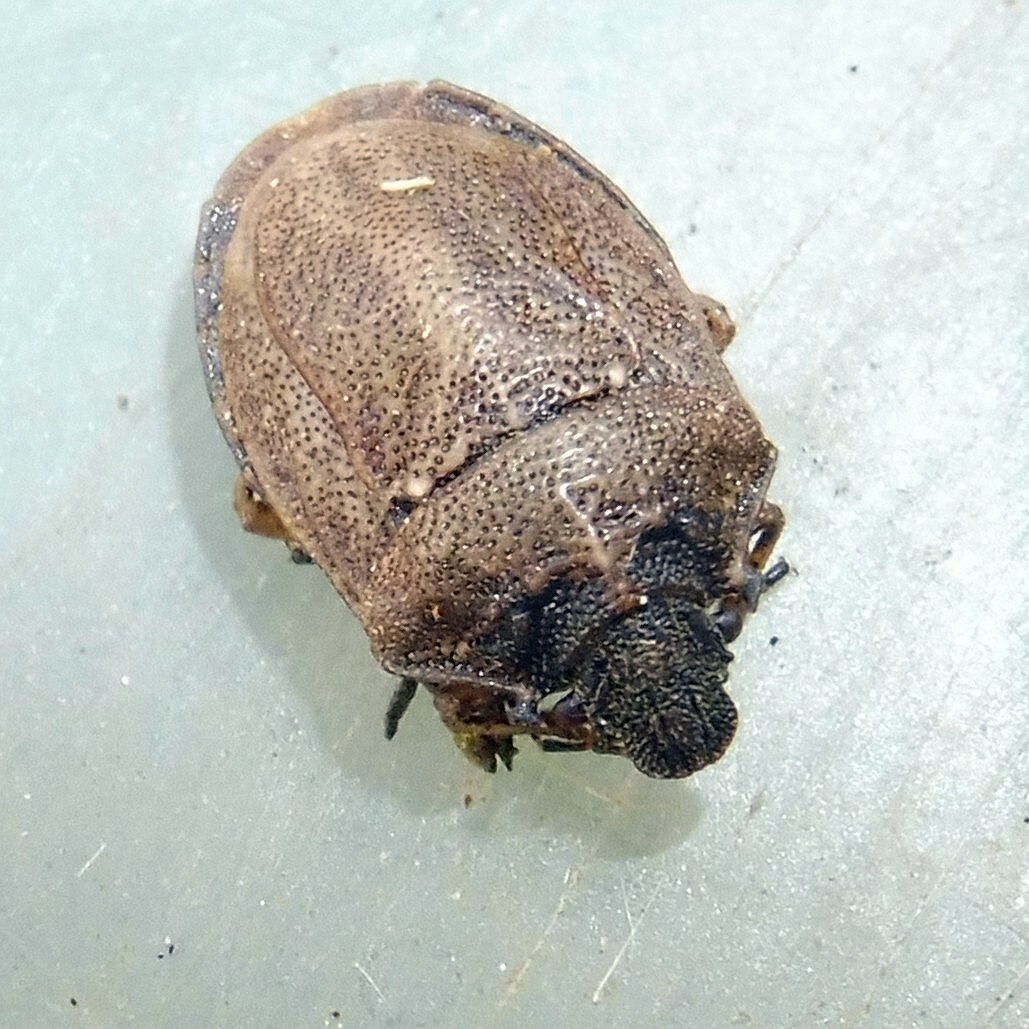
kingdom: Animalia
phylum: Arthropoda
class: Insecta
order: Hemiptera
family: Pentatomidae
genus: Podops
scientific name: Podops inunctus
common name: Turtle bug
